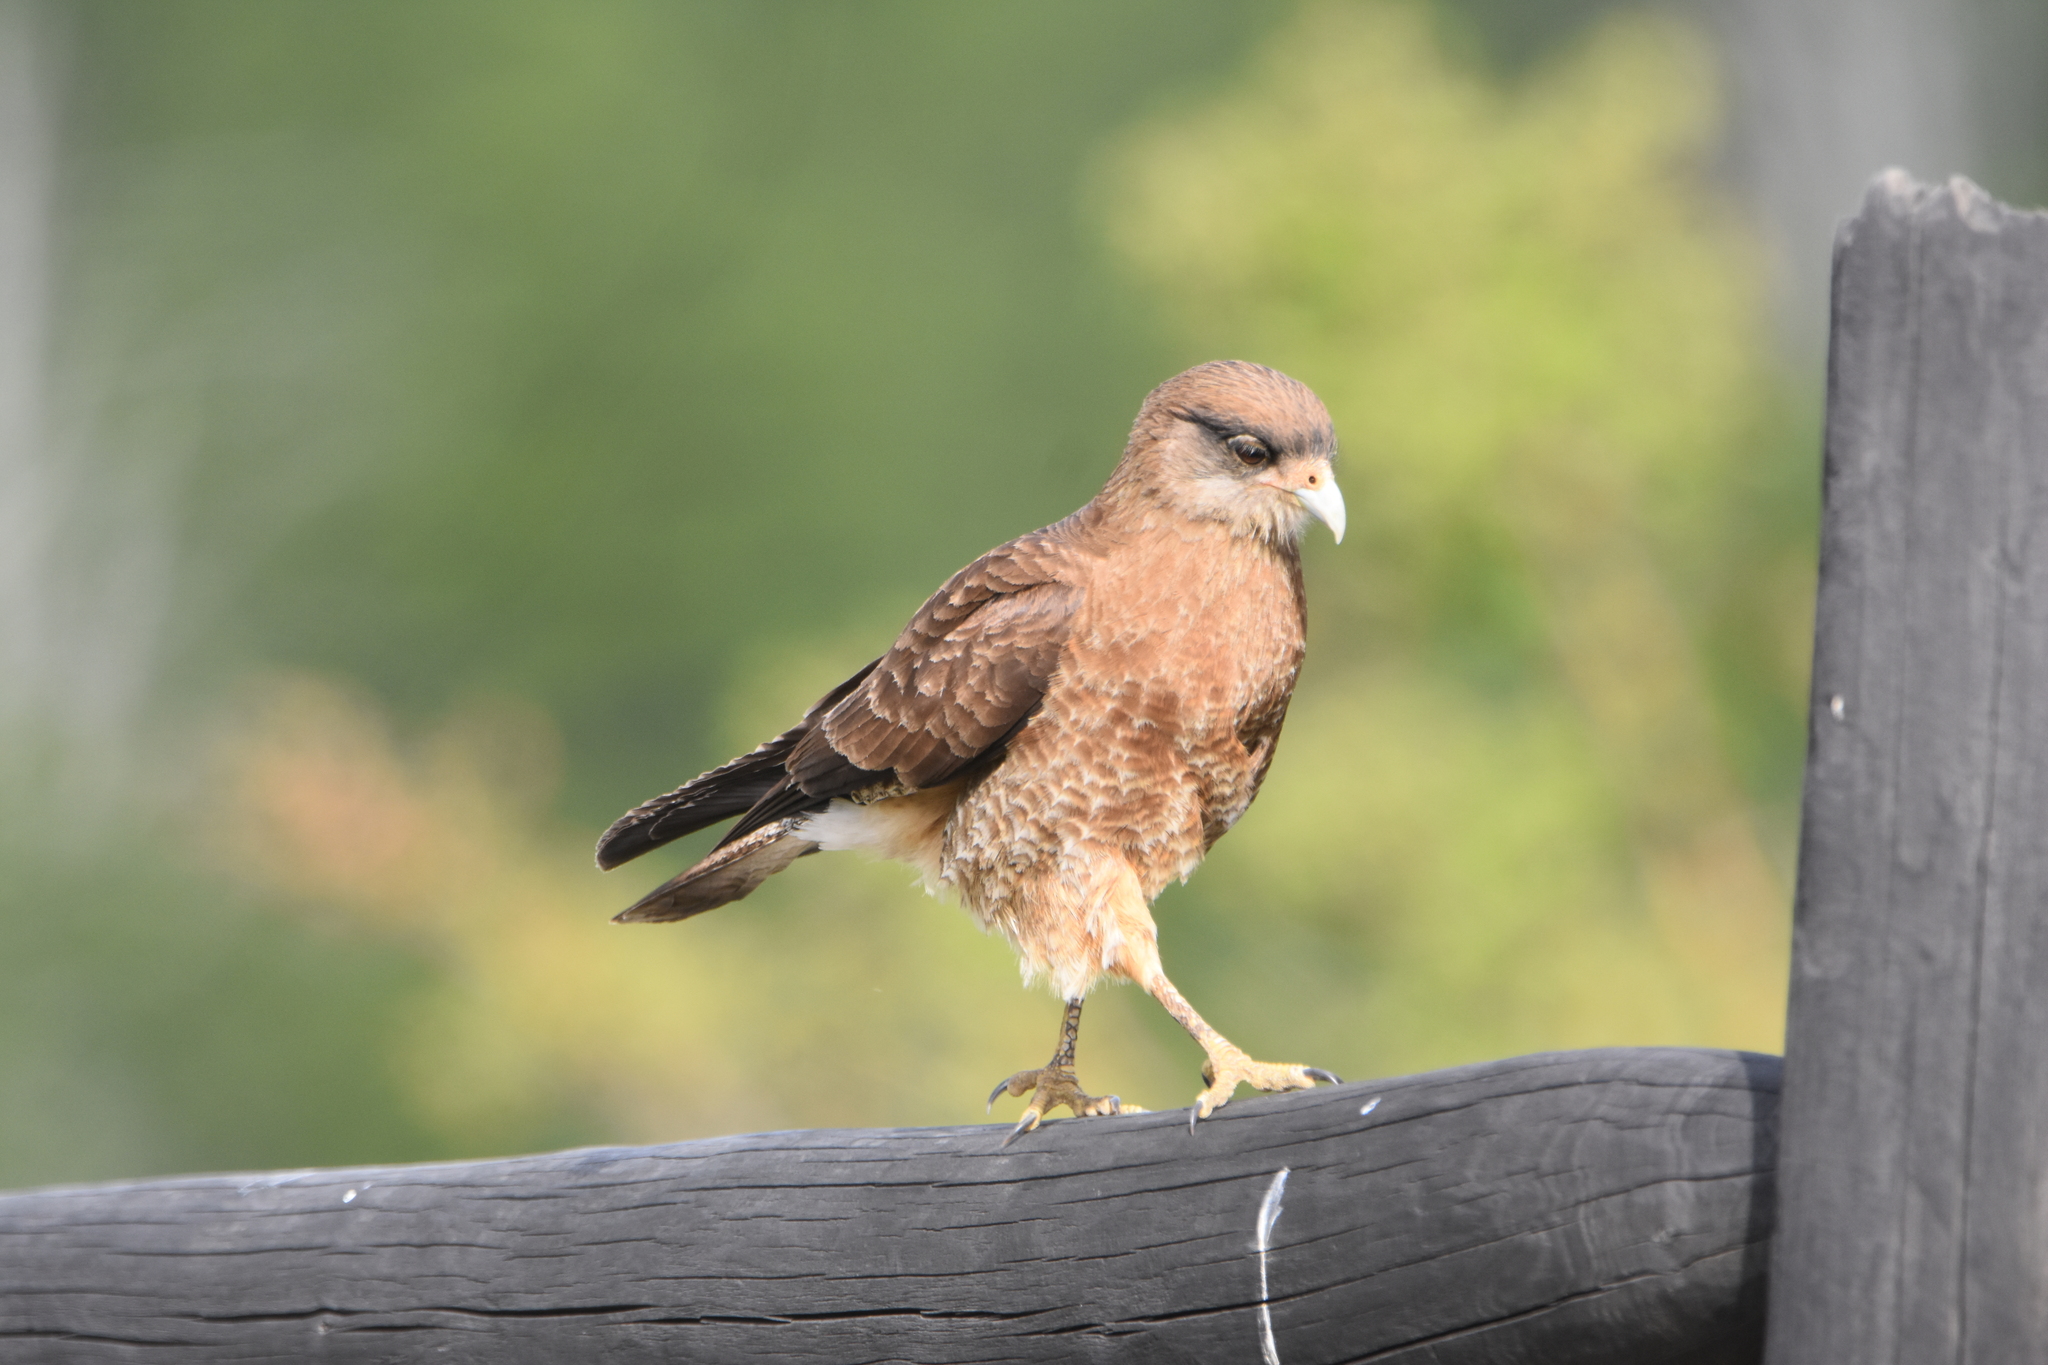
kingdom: Animalia
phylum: Chordata
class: Aves
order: Falconiformes
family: Falconidae
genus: Daptrius
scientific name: Daptrius
